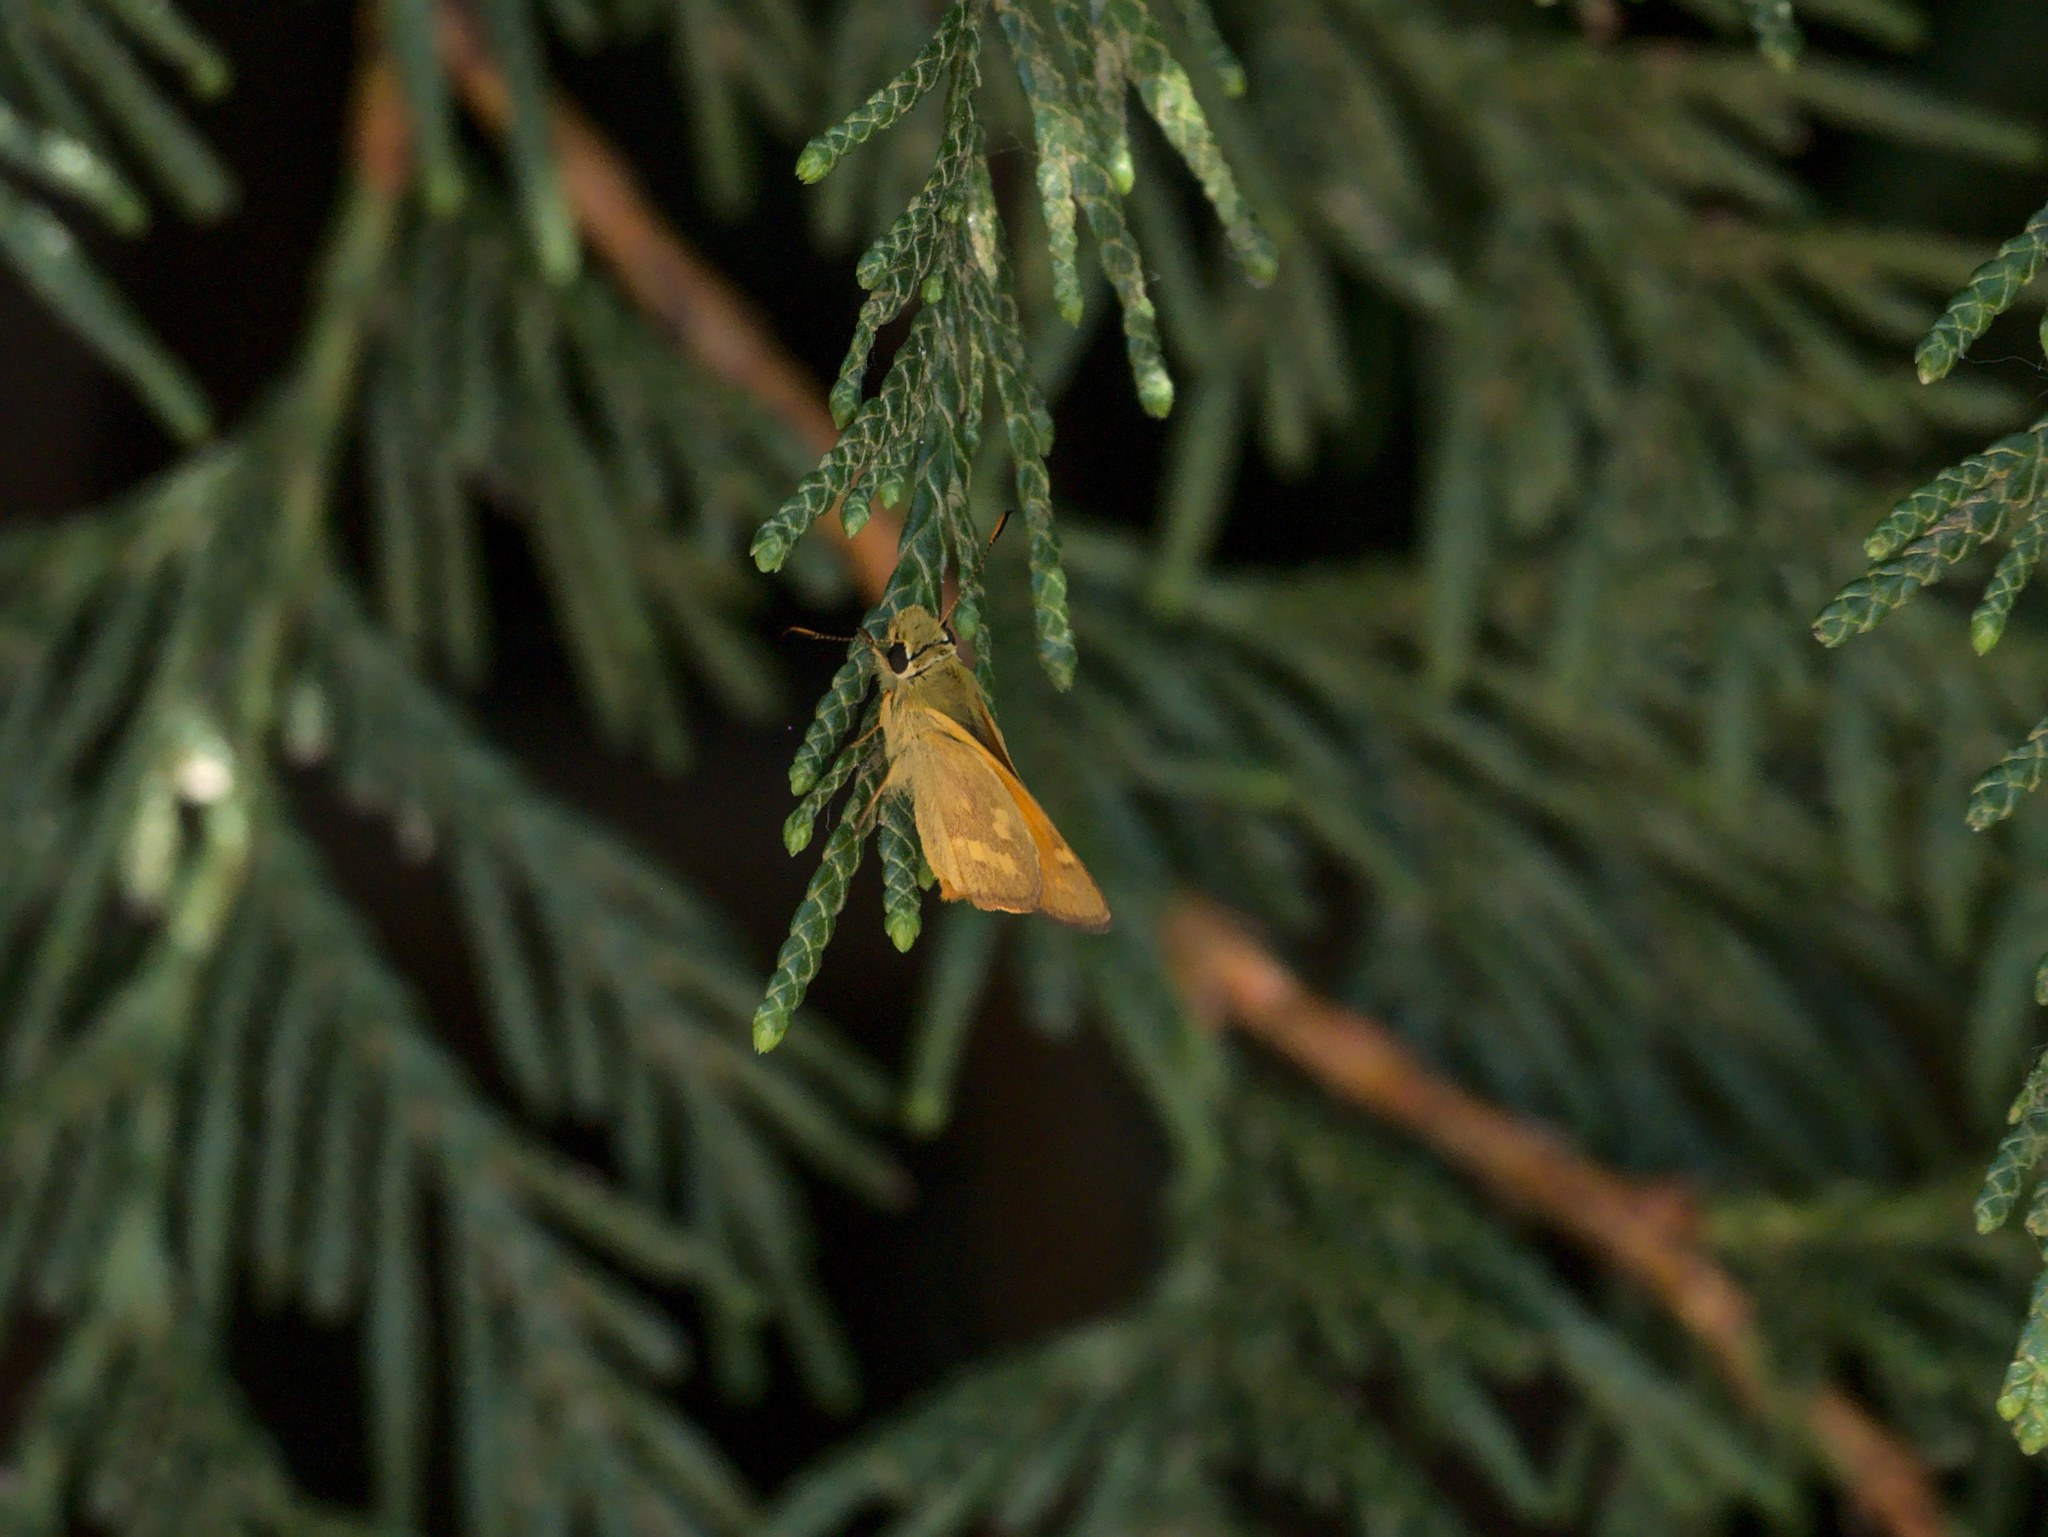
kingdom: Animalia
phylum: Arthropoda
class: Insecta
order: Lepidoptera
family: Hesperiidae
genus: Ochlodes
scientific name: Ochlodes sylvanoides
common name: Woodland skipper
